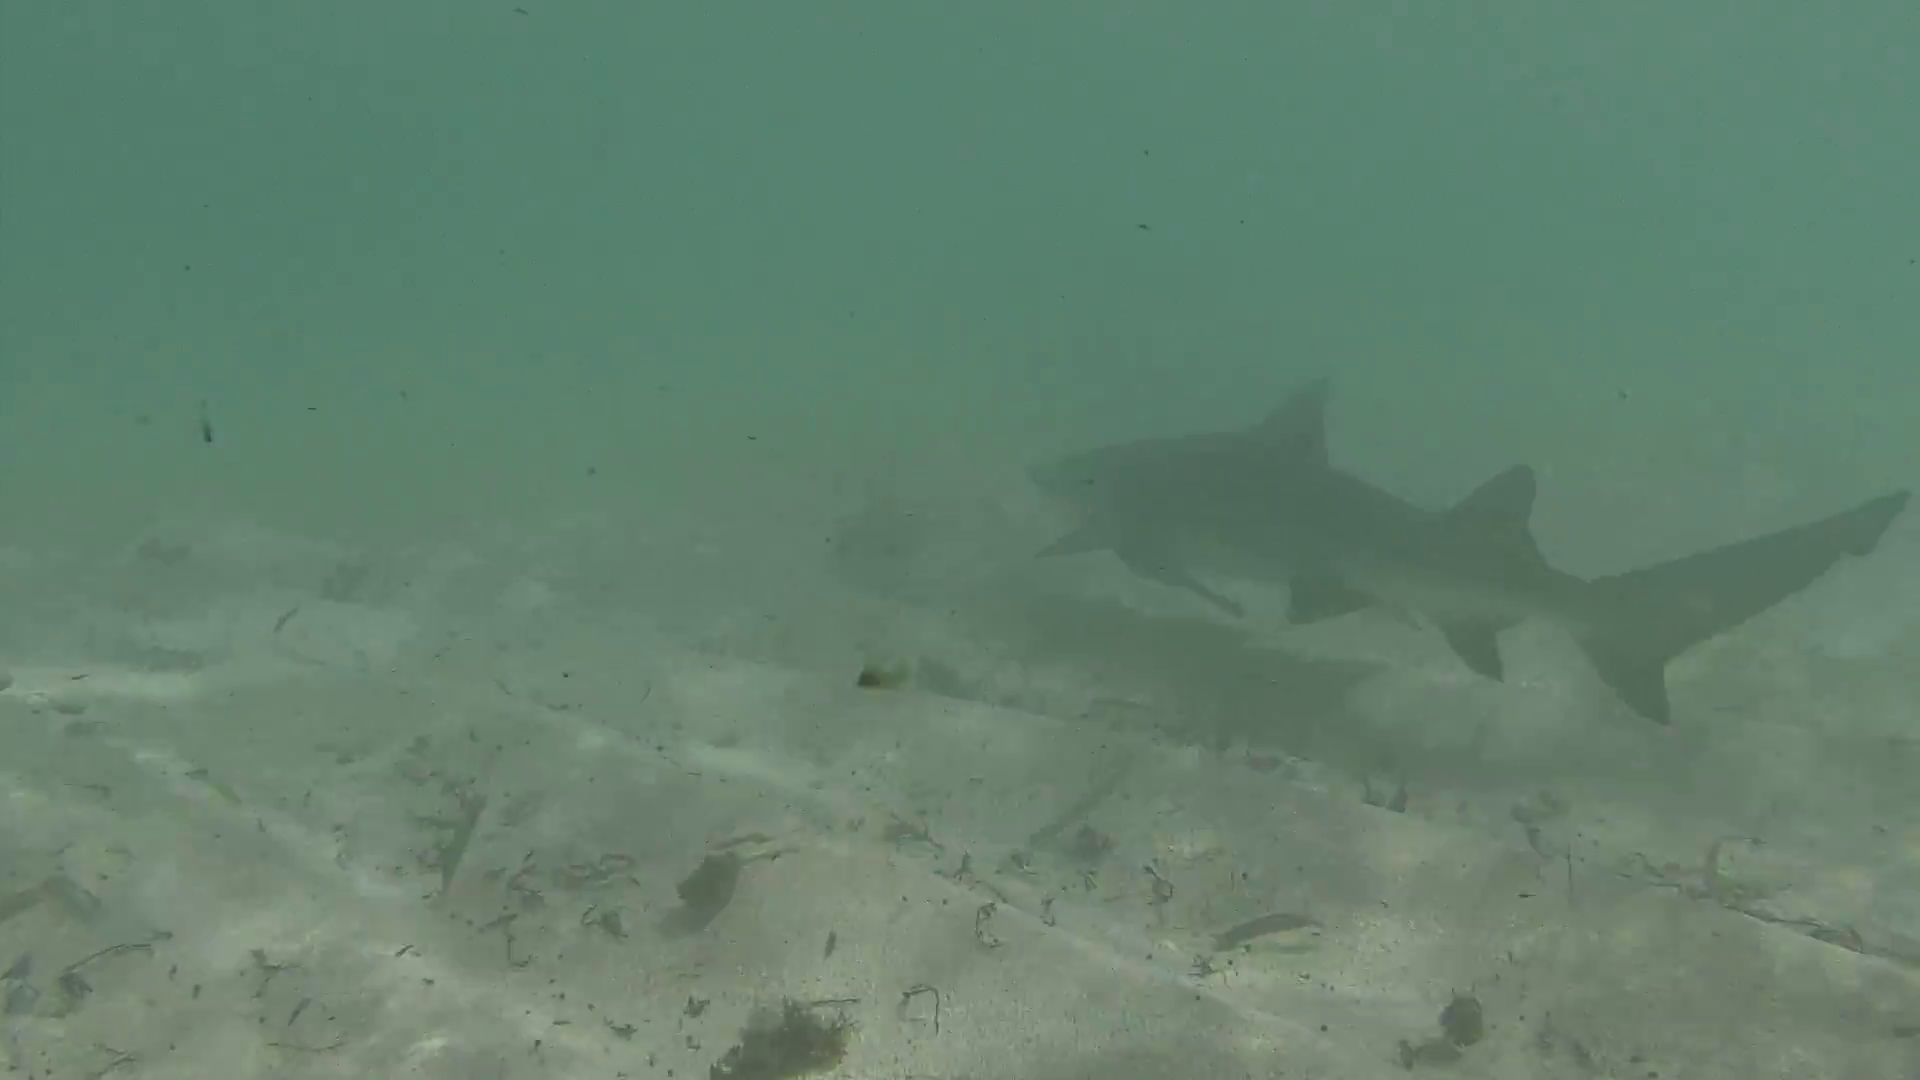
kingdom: Animalia
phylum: Chordata
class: Elasmobranchii
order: Carcharhiniformes
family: Carcharhinidae
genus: Negaprion
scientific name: Negaprion brevirostris
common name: Lemon shark
